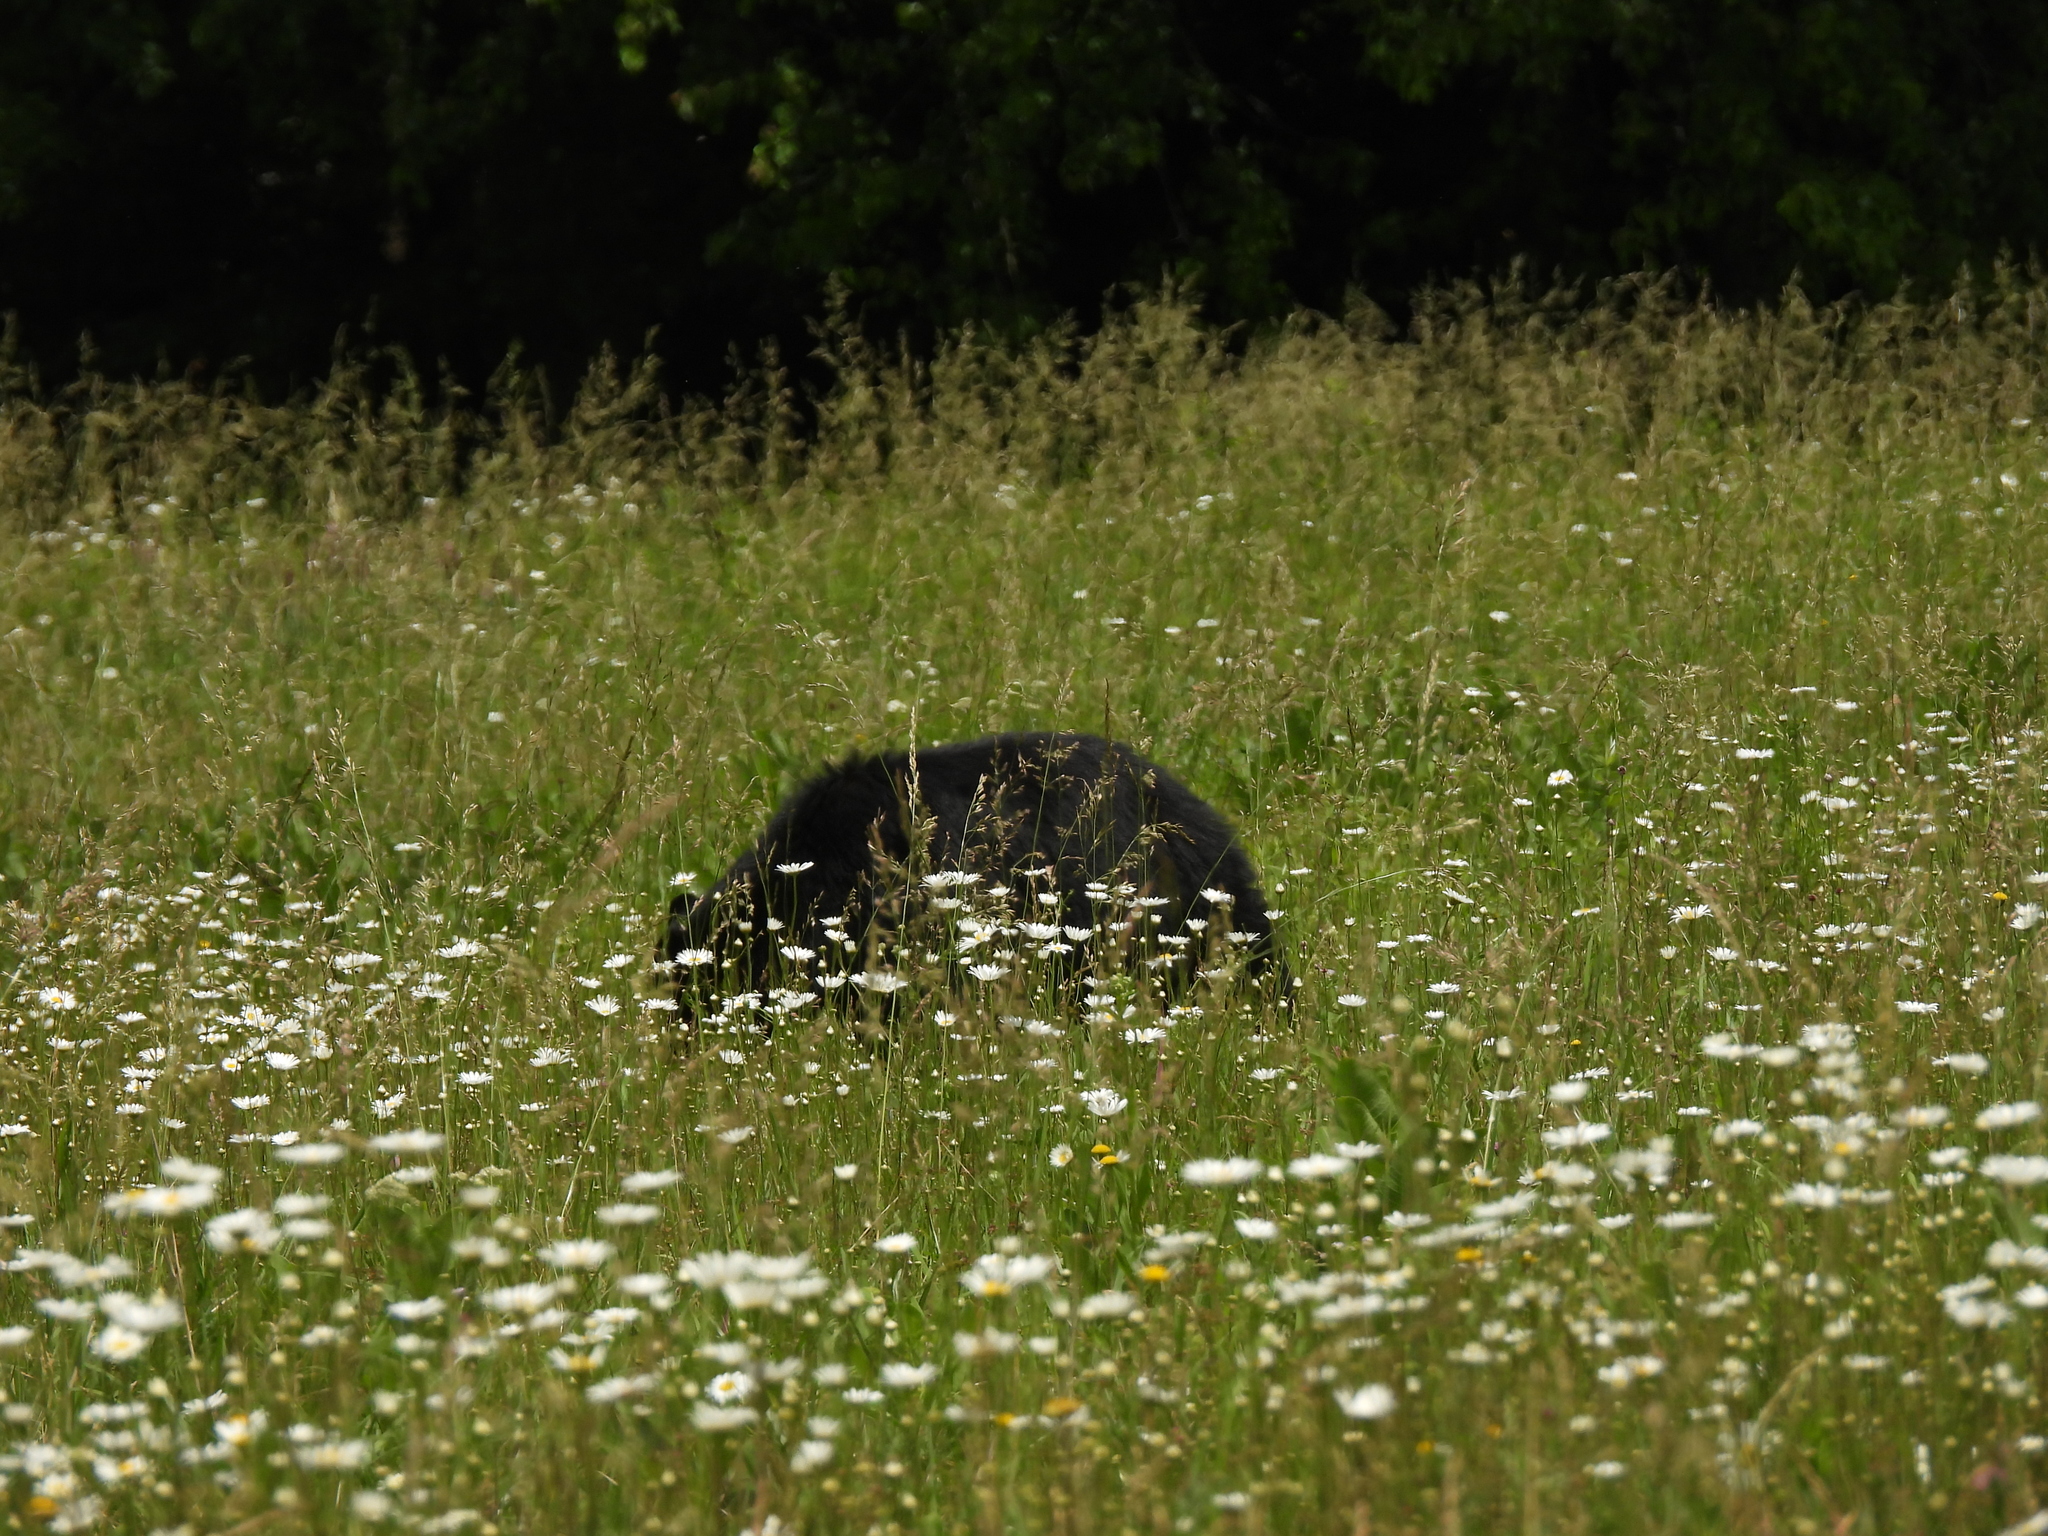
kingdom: Animalia
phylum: Chordata
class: Mammalia
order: Carnivora
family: Ursidae
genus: Ursus
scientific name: Ursus americanus
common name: American black bear
